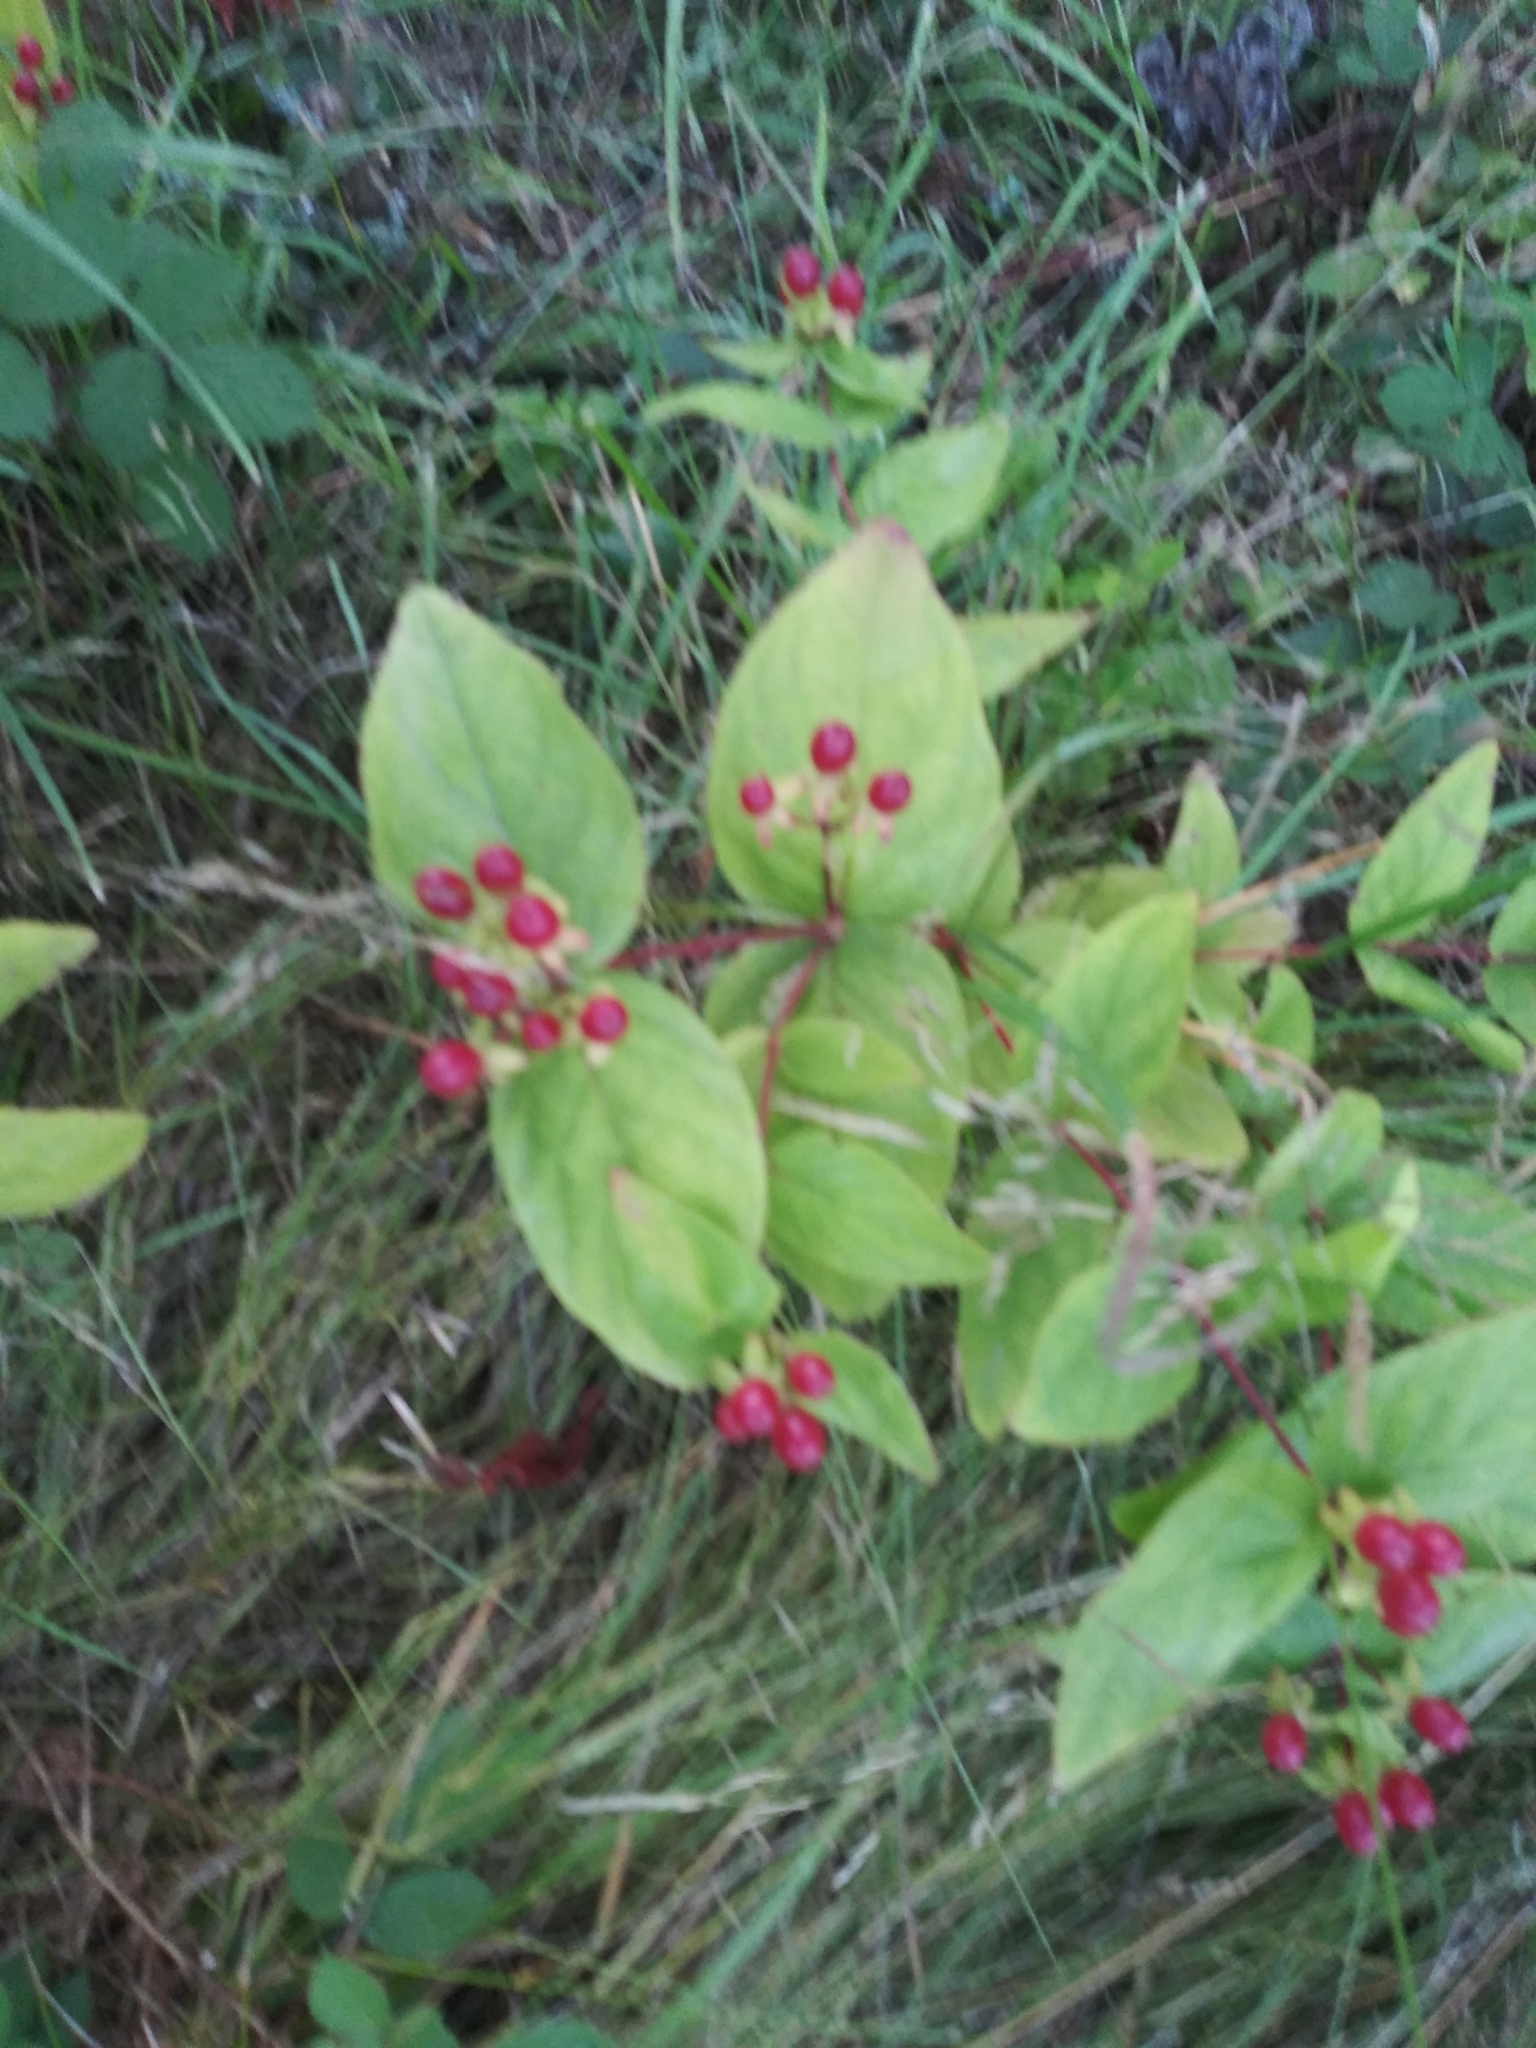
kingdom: Plantae
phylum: Tracheophyta
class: Magnoliopsida
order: Malpighiales
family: Hypericaceae
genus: Hypericum
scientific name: Hypericum androsaemum
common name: Sweet-amber
